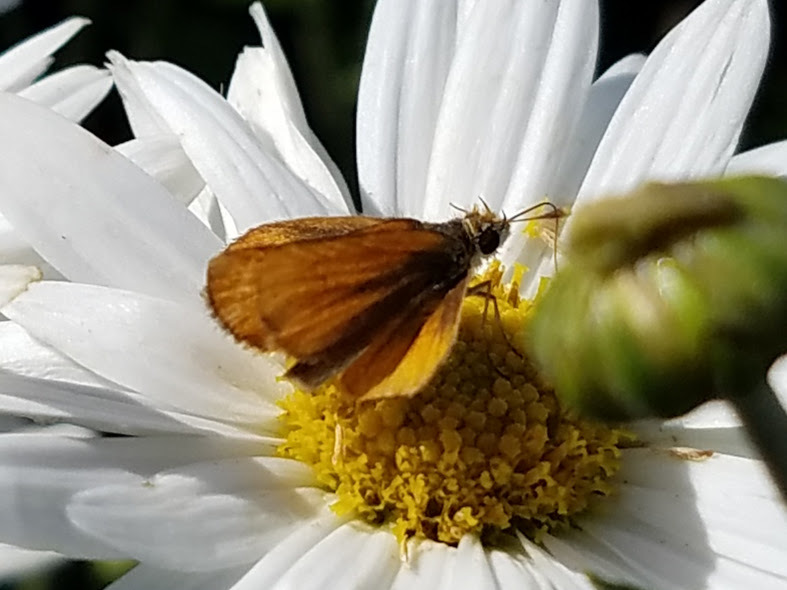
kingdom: Animalia
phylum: Arthropoda
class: Insecta
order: Lepidoptera
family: Hesperiidae
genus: Copaeodes
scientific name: Copaeodes minima
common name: Southern skipperling
